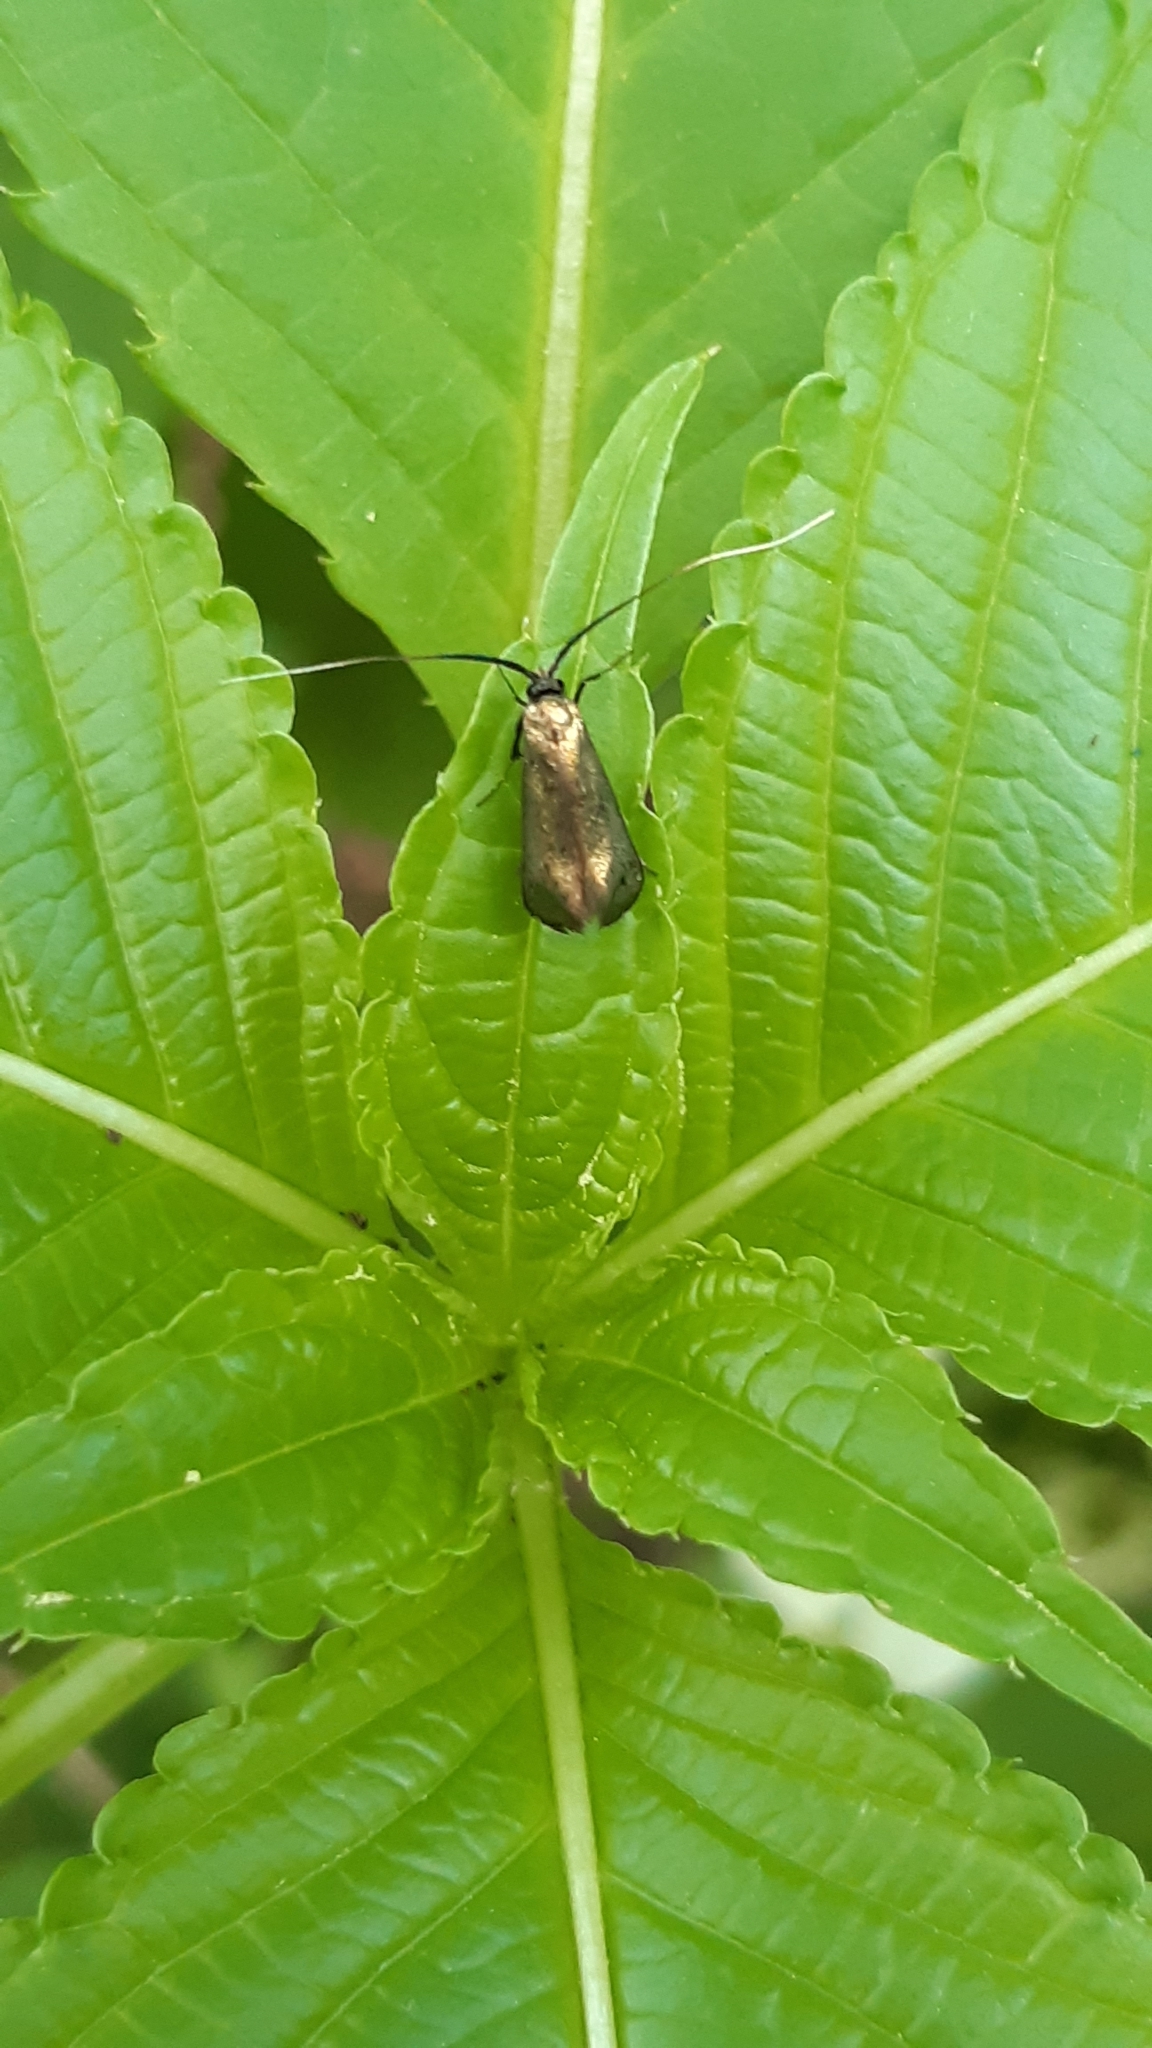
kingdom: Animalia
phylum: Arthropoda
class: Insecta
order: Lepidoptera
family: Adelidae
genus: Adela
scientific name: Adela viridella
